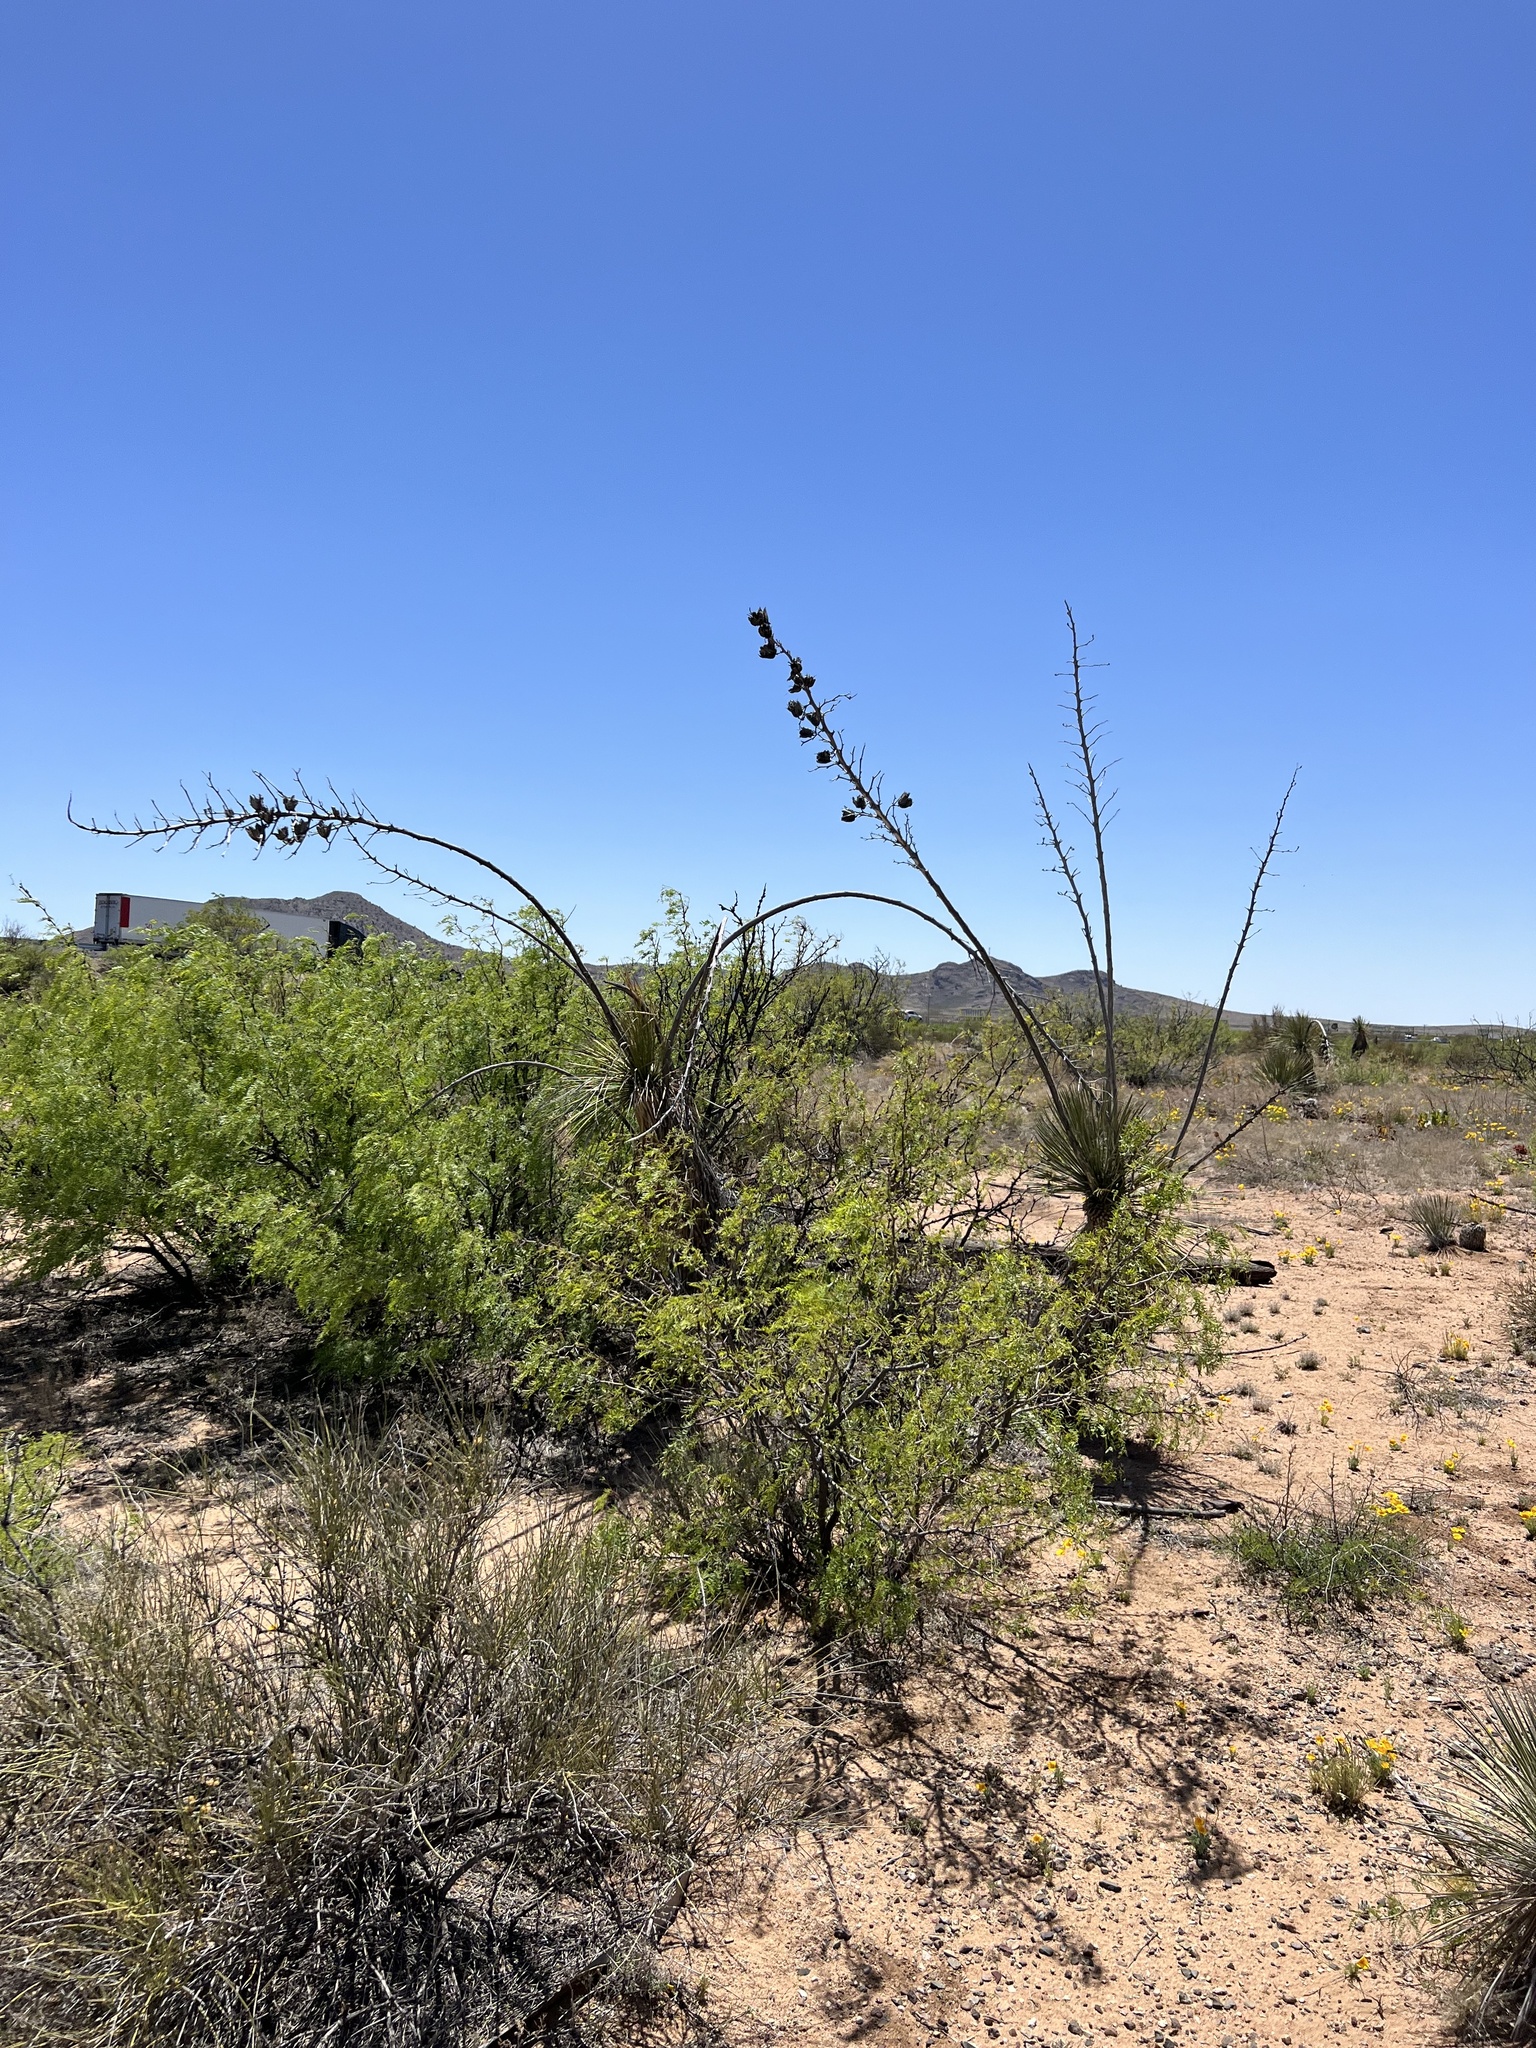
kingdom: Plantae
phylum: Tracheophyta
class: Liliopsida
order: Asparagales
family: Asparagaceae
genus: Yucca
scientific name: Yucca elata
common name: Palmella
